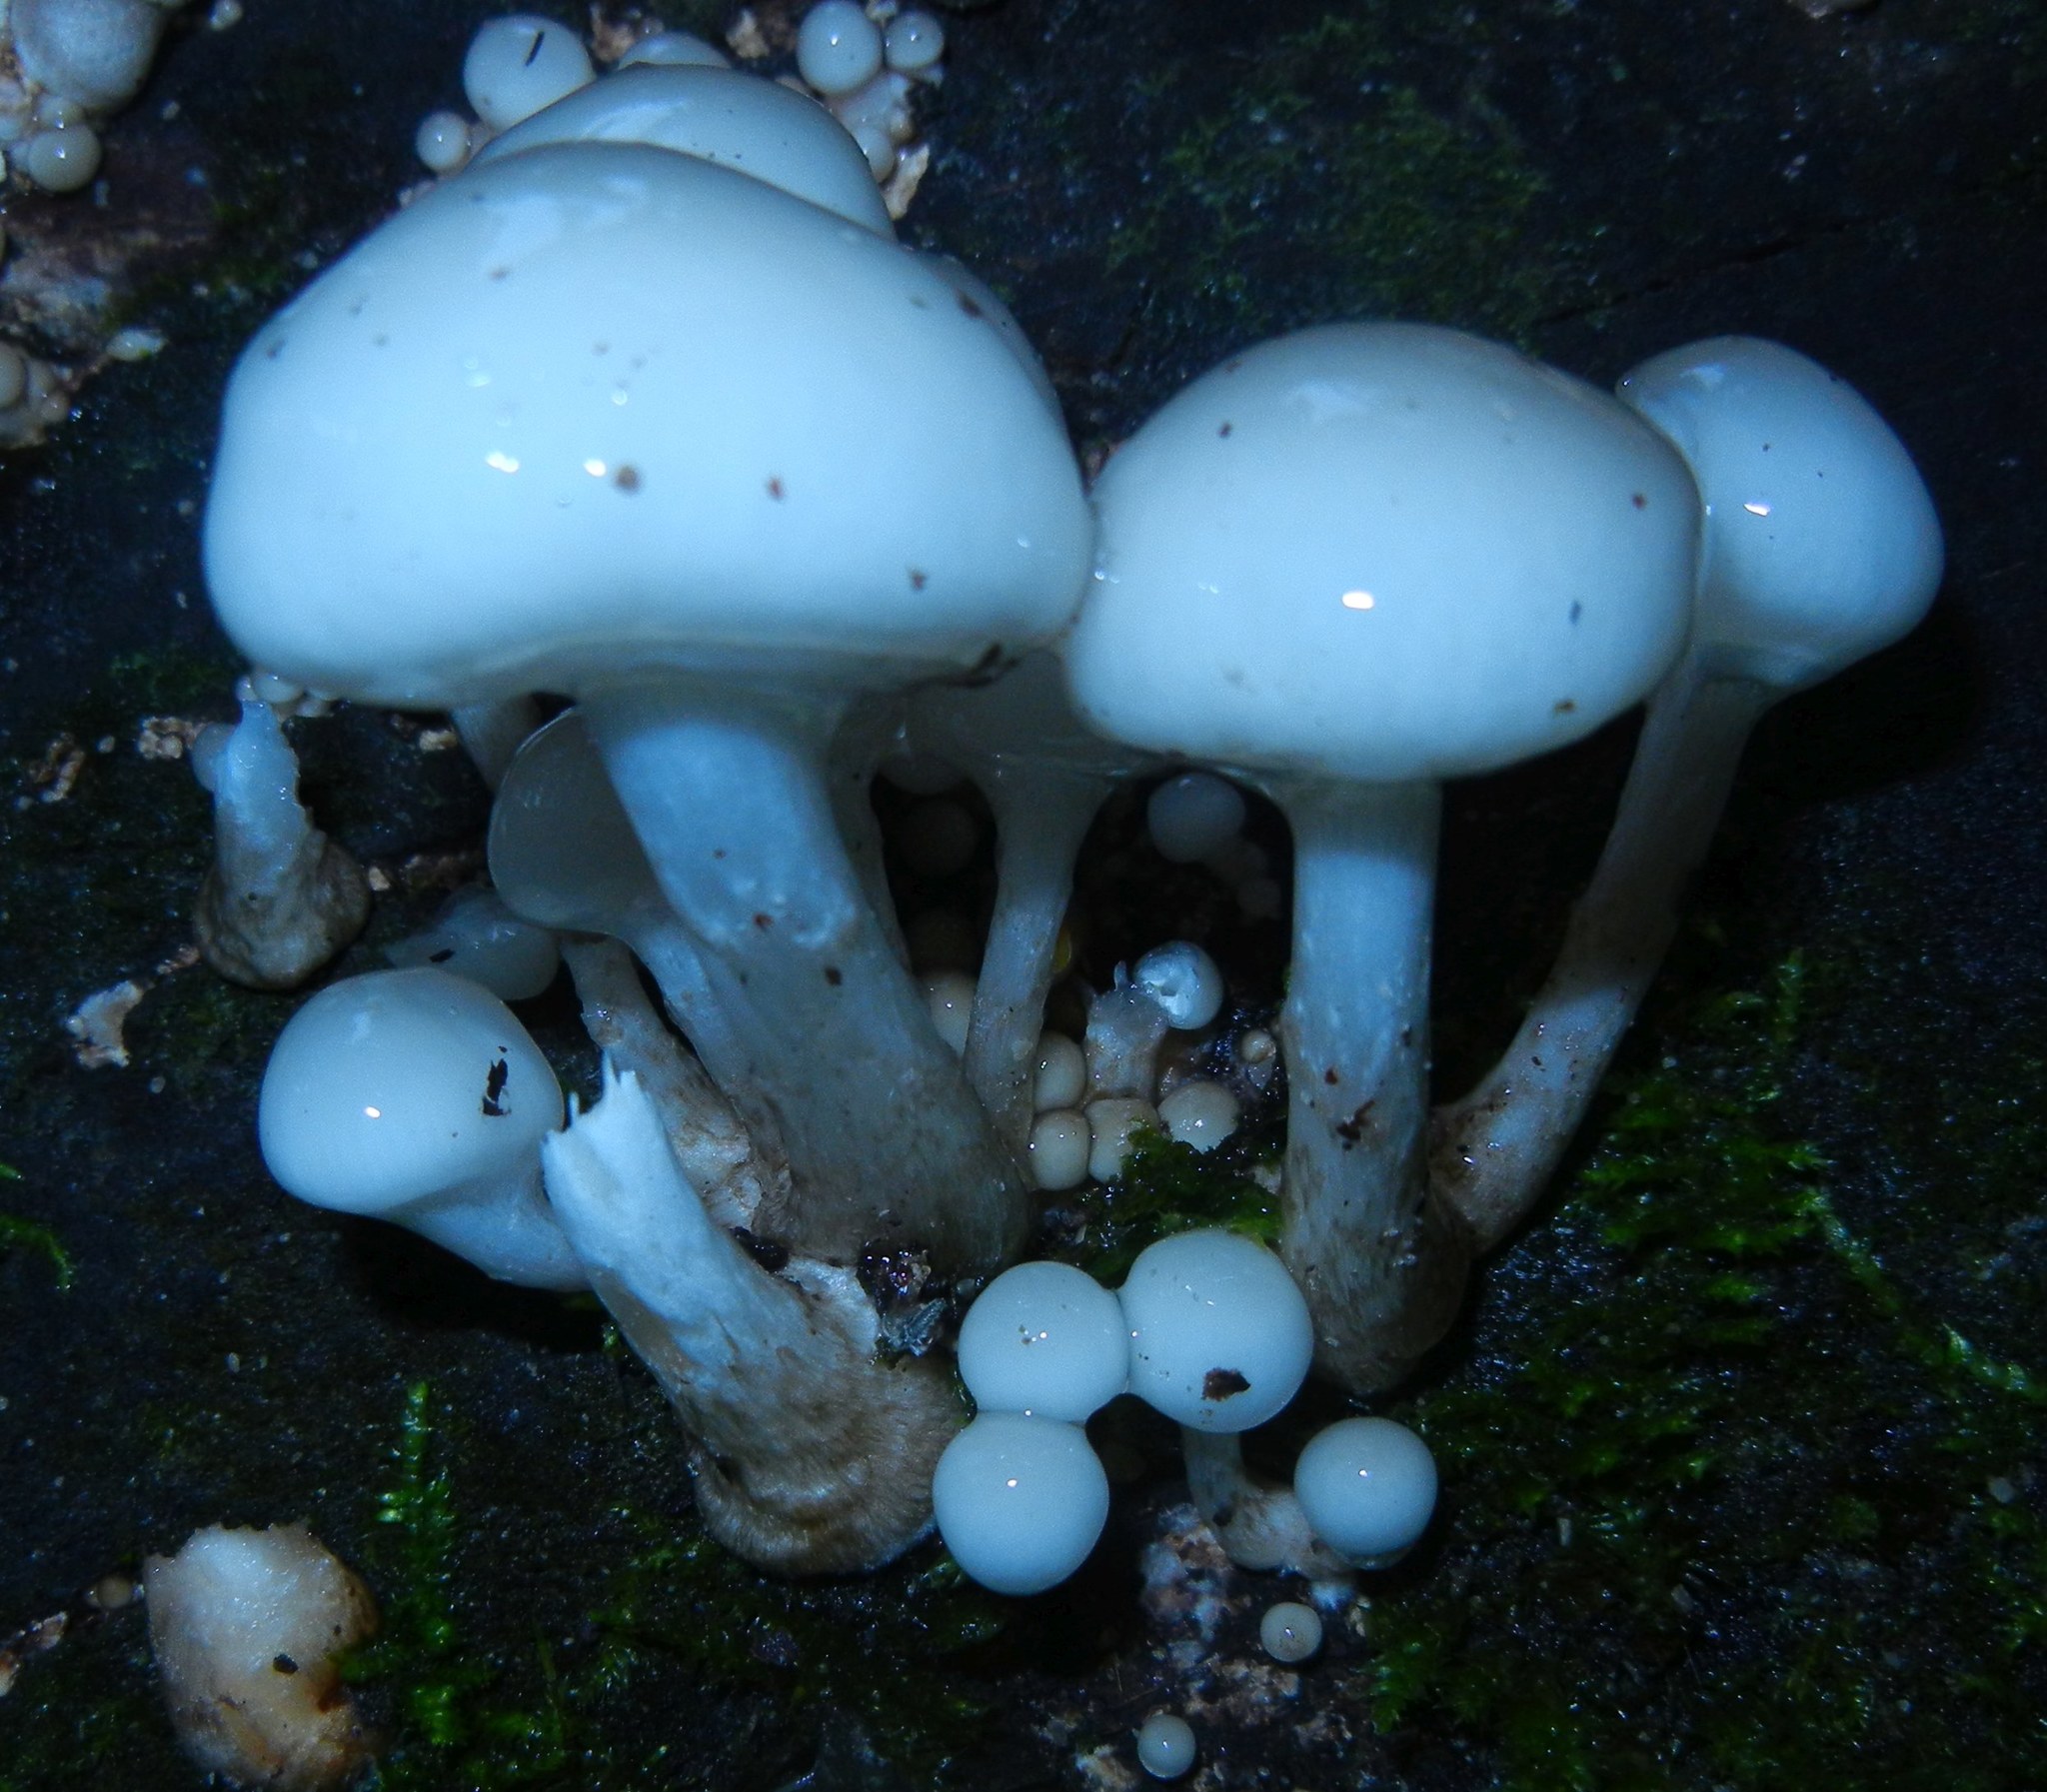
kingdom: Fungi
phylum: Basidiomycota
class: Agaricomycetes
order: Agaricales
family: Physalacriaceae
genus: Mucidula
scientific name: Mucidula mucida
